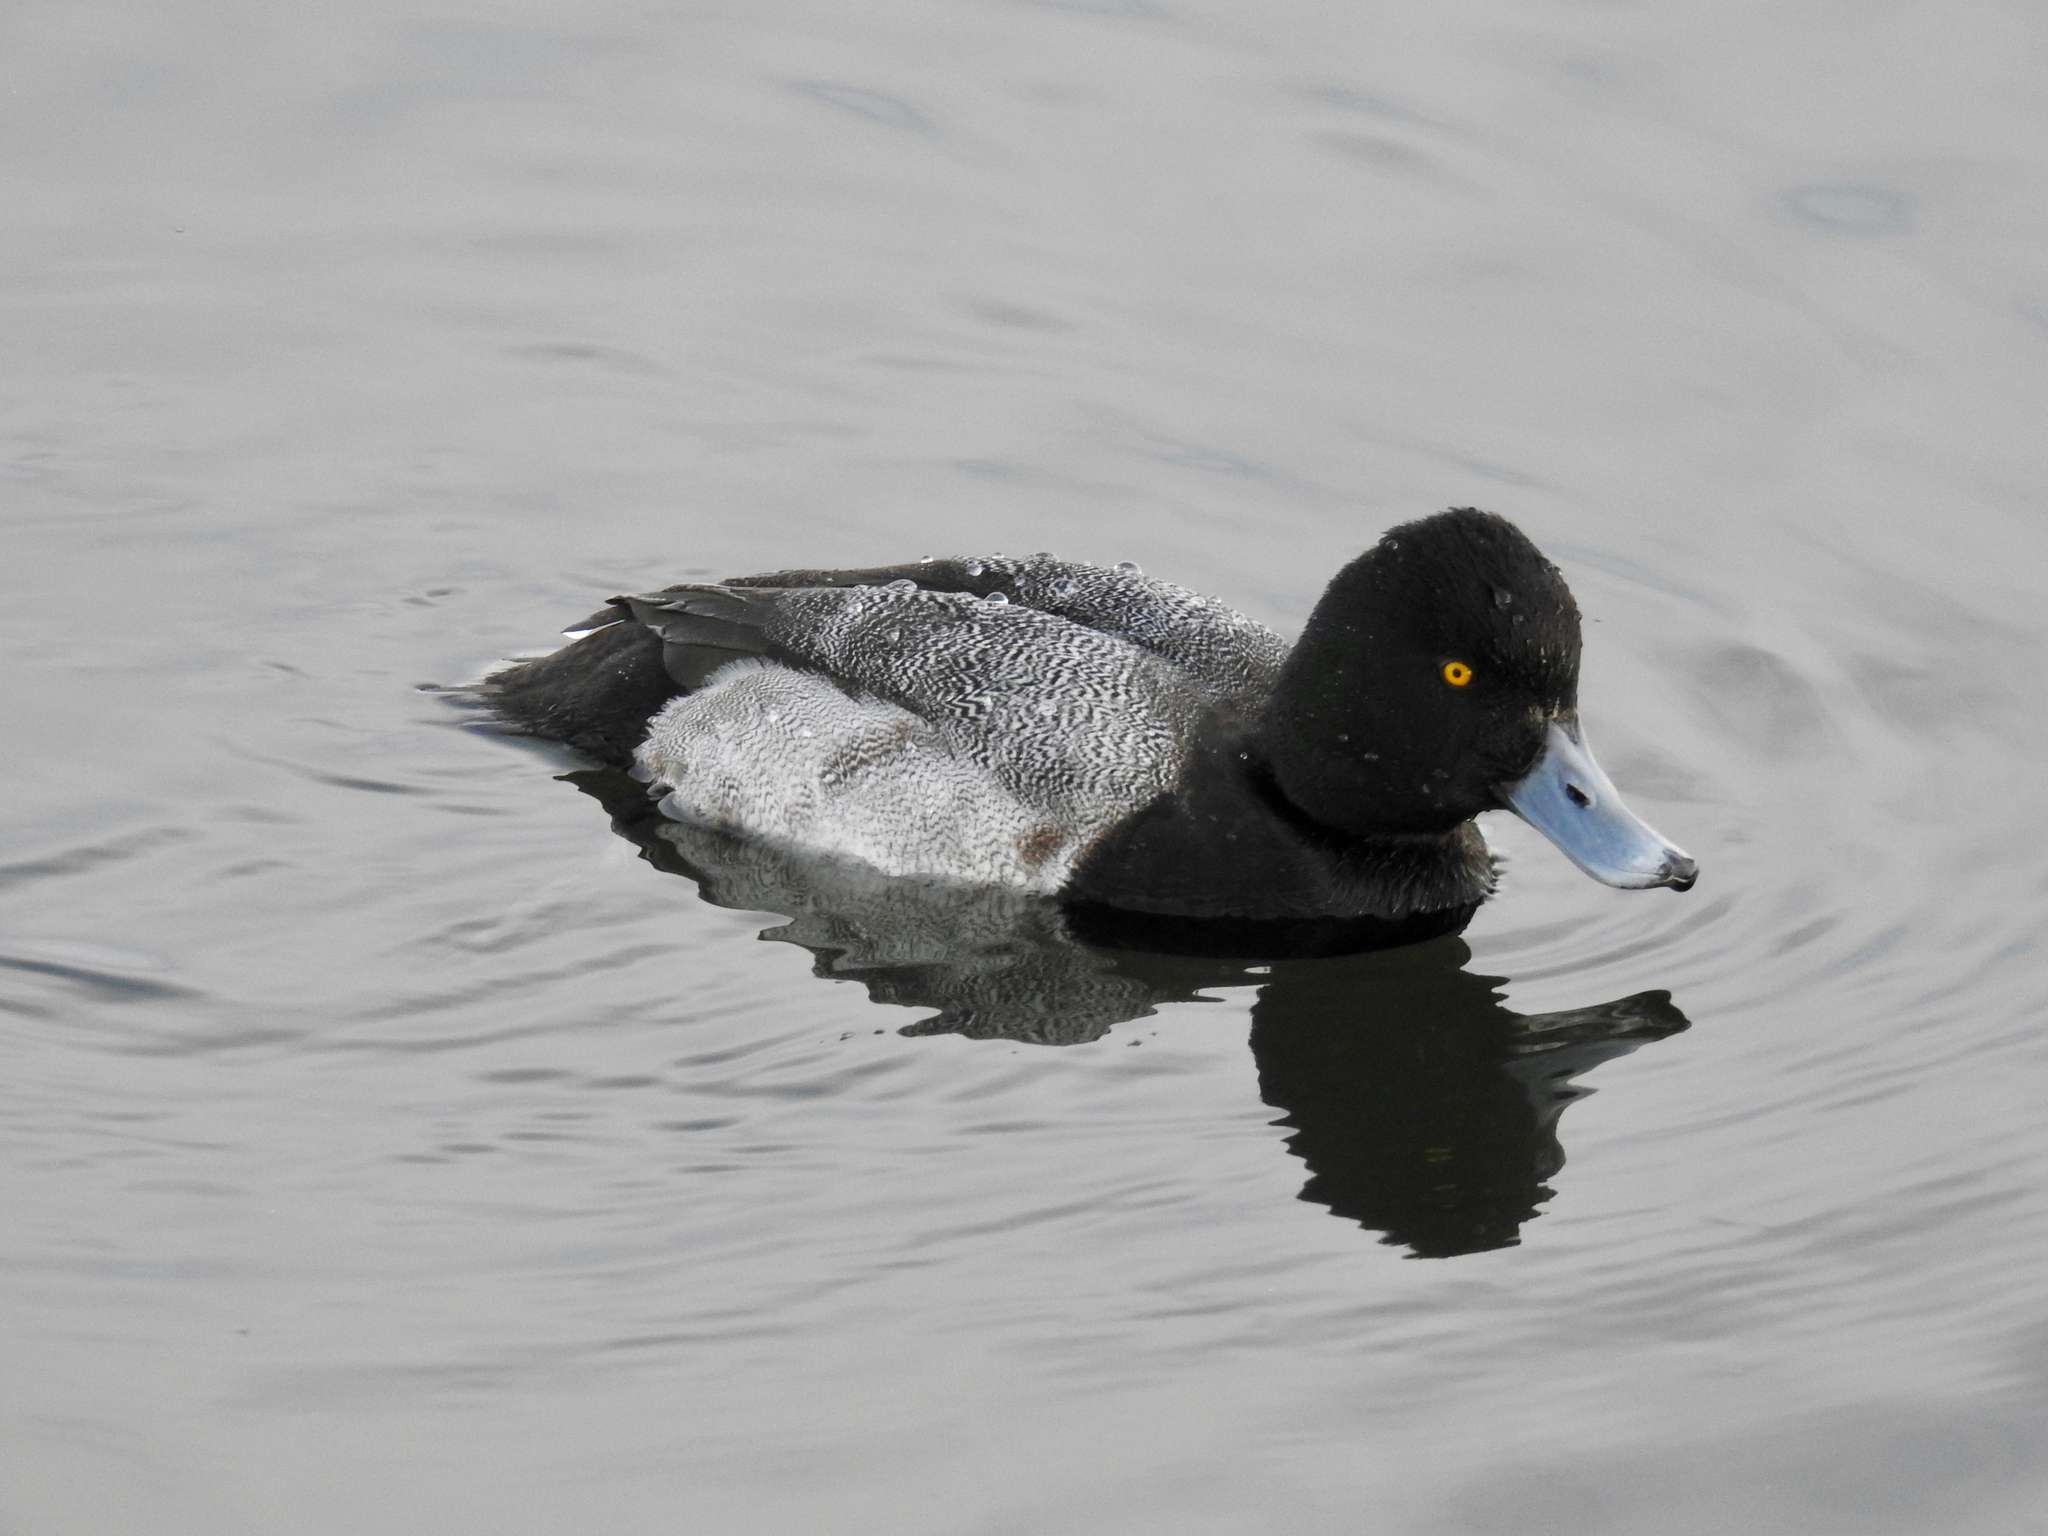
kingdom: Animalia
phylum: Chordata
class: Aves
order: Anseriformes
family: Anatidae
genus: Aythya
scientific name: Aythya affinis
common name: Lesser scaup
